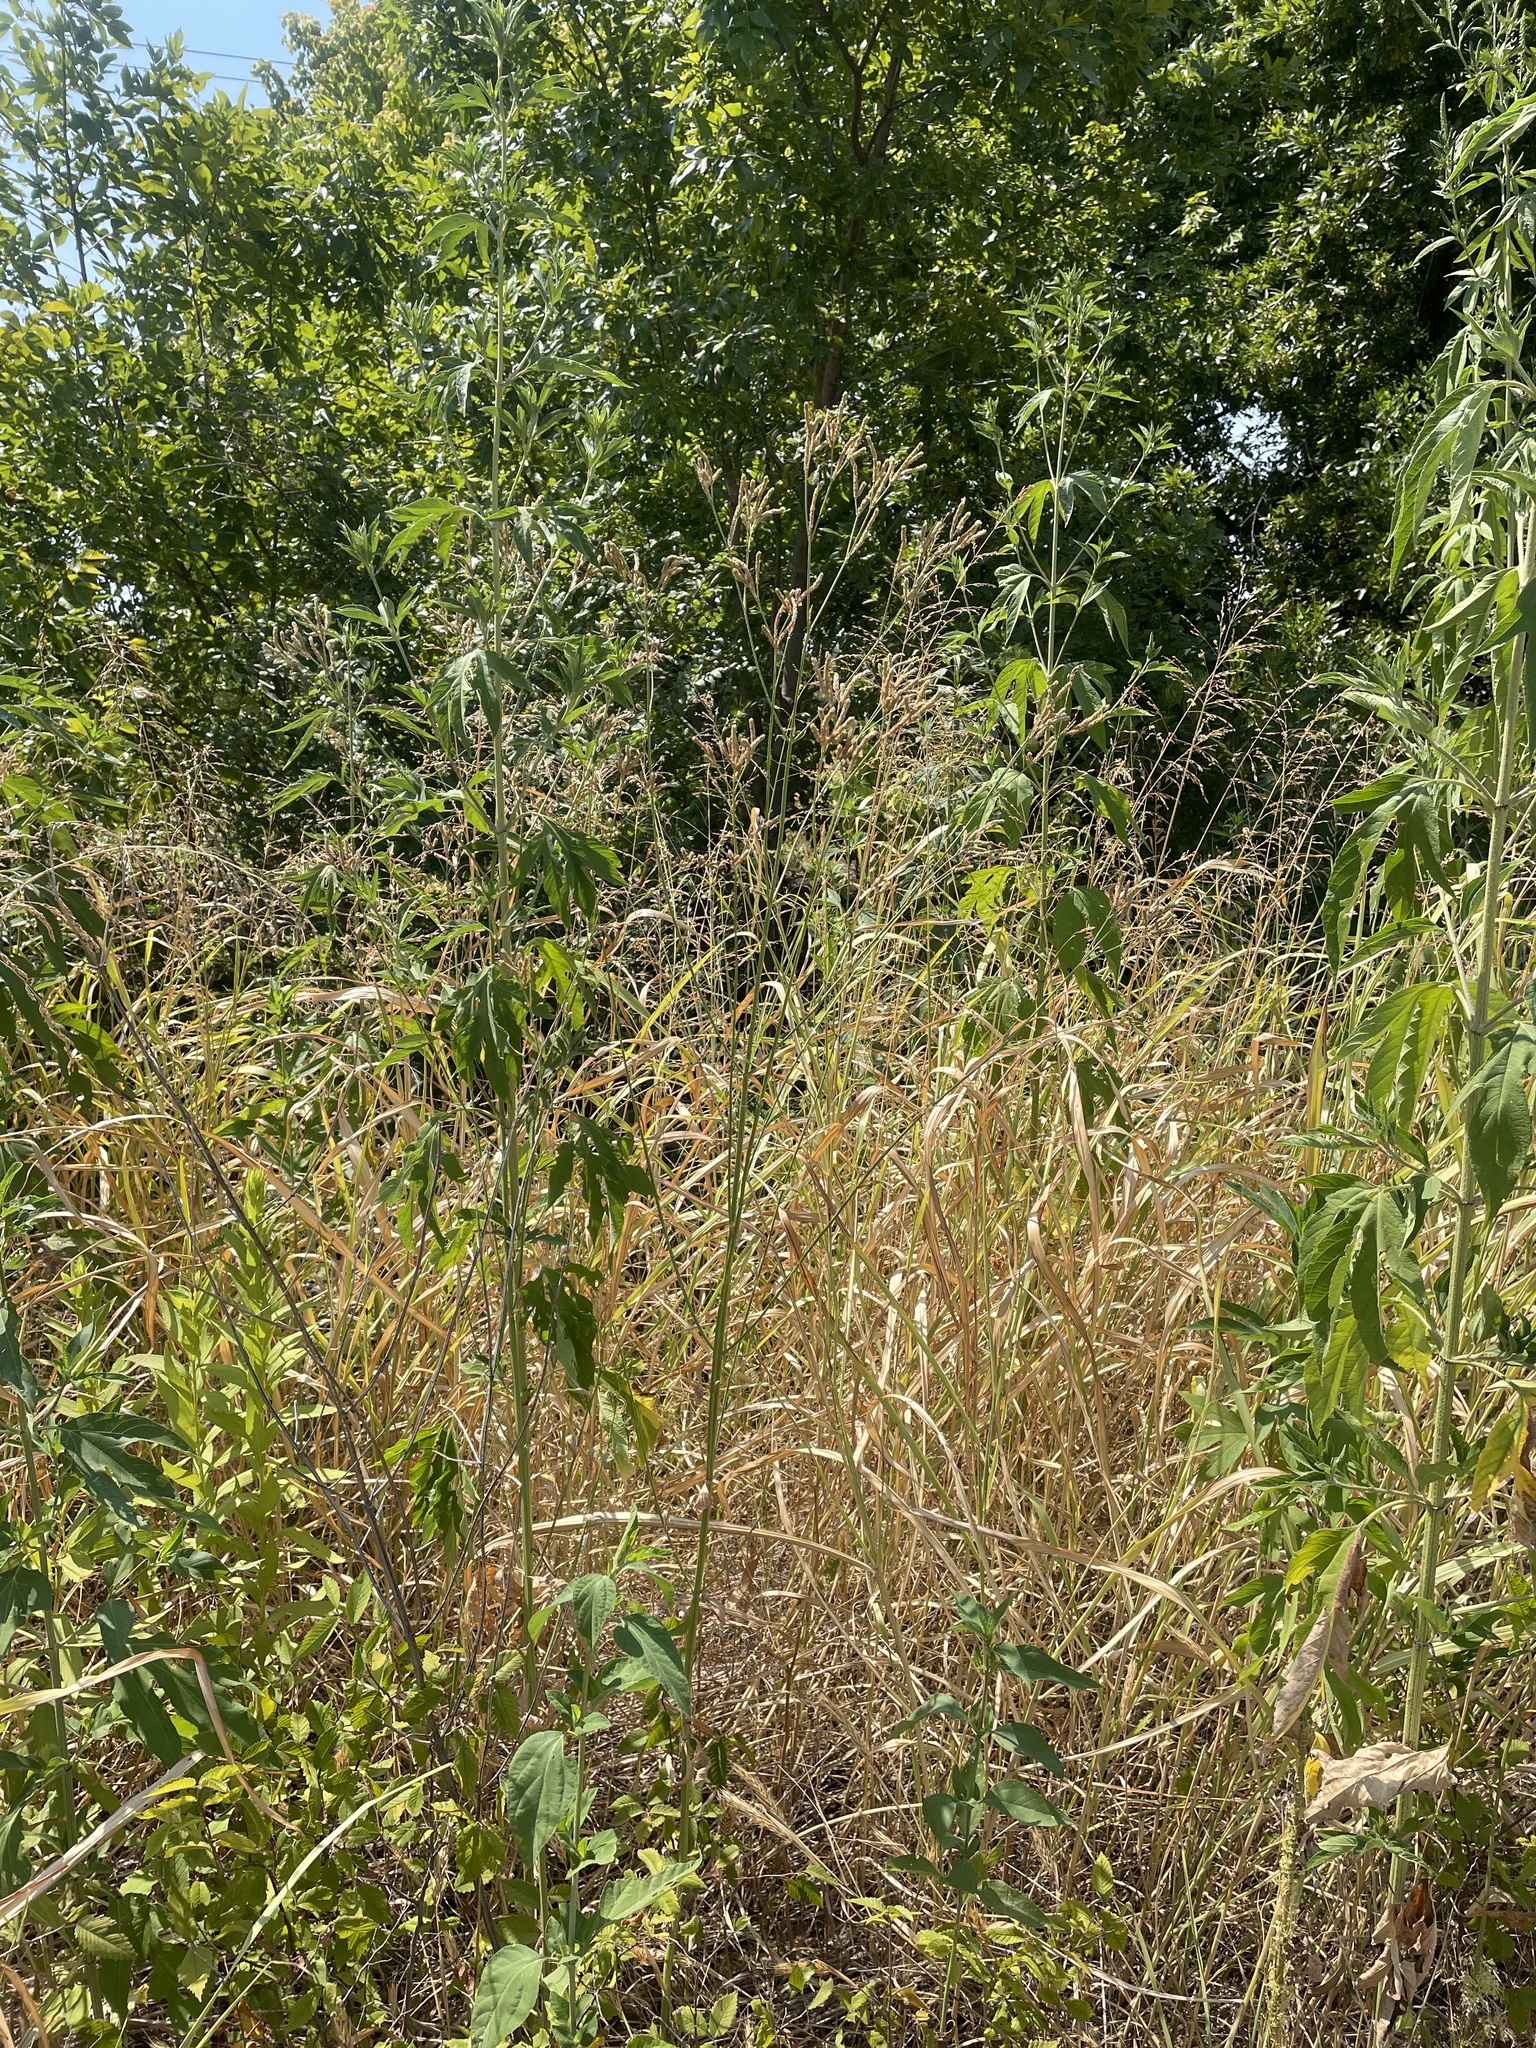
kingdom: Plantae
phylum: Tracheophyta
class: Magnoliopsida
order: Lamiales
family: Verbenaceae
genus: Verbena
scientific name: Verbena brasiliensis
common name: Brazilian vervain
